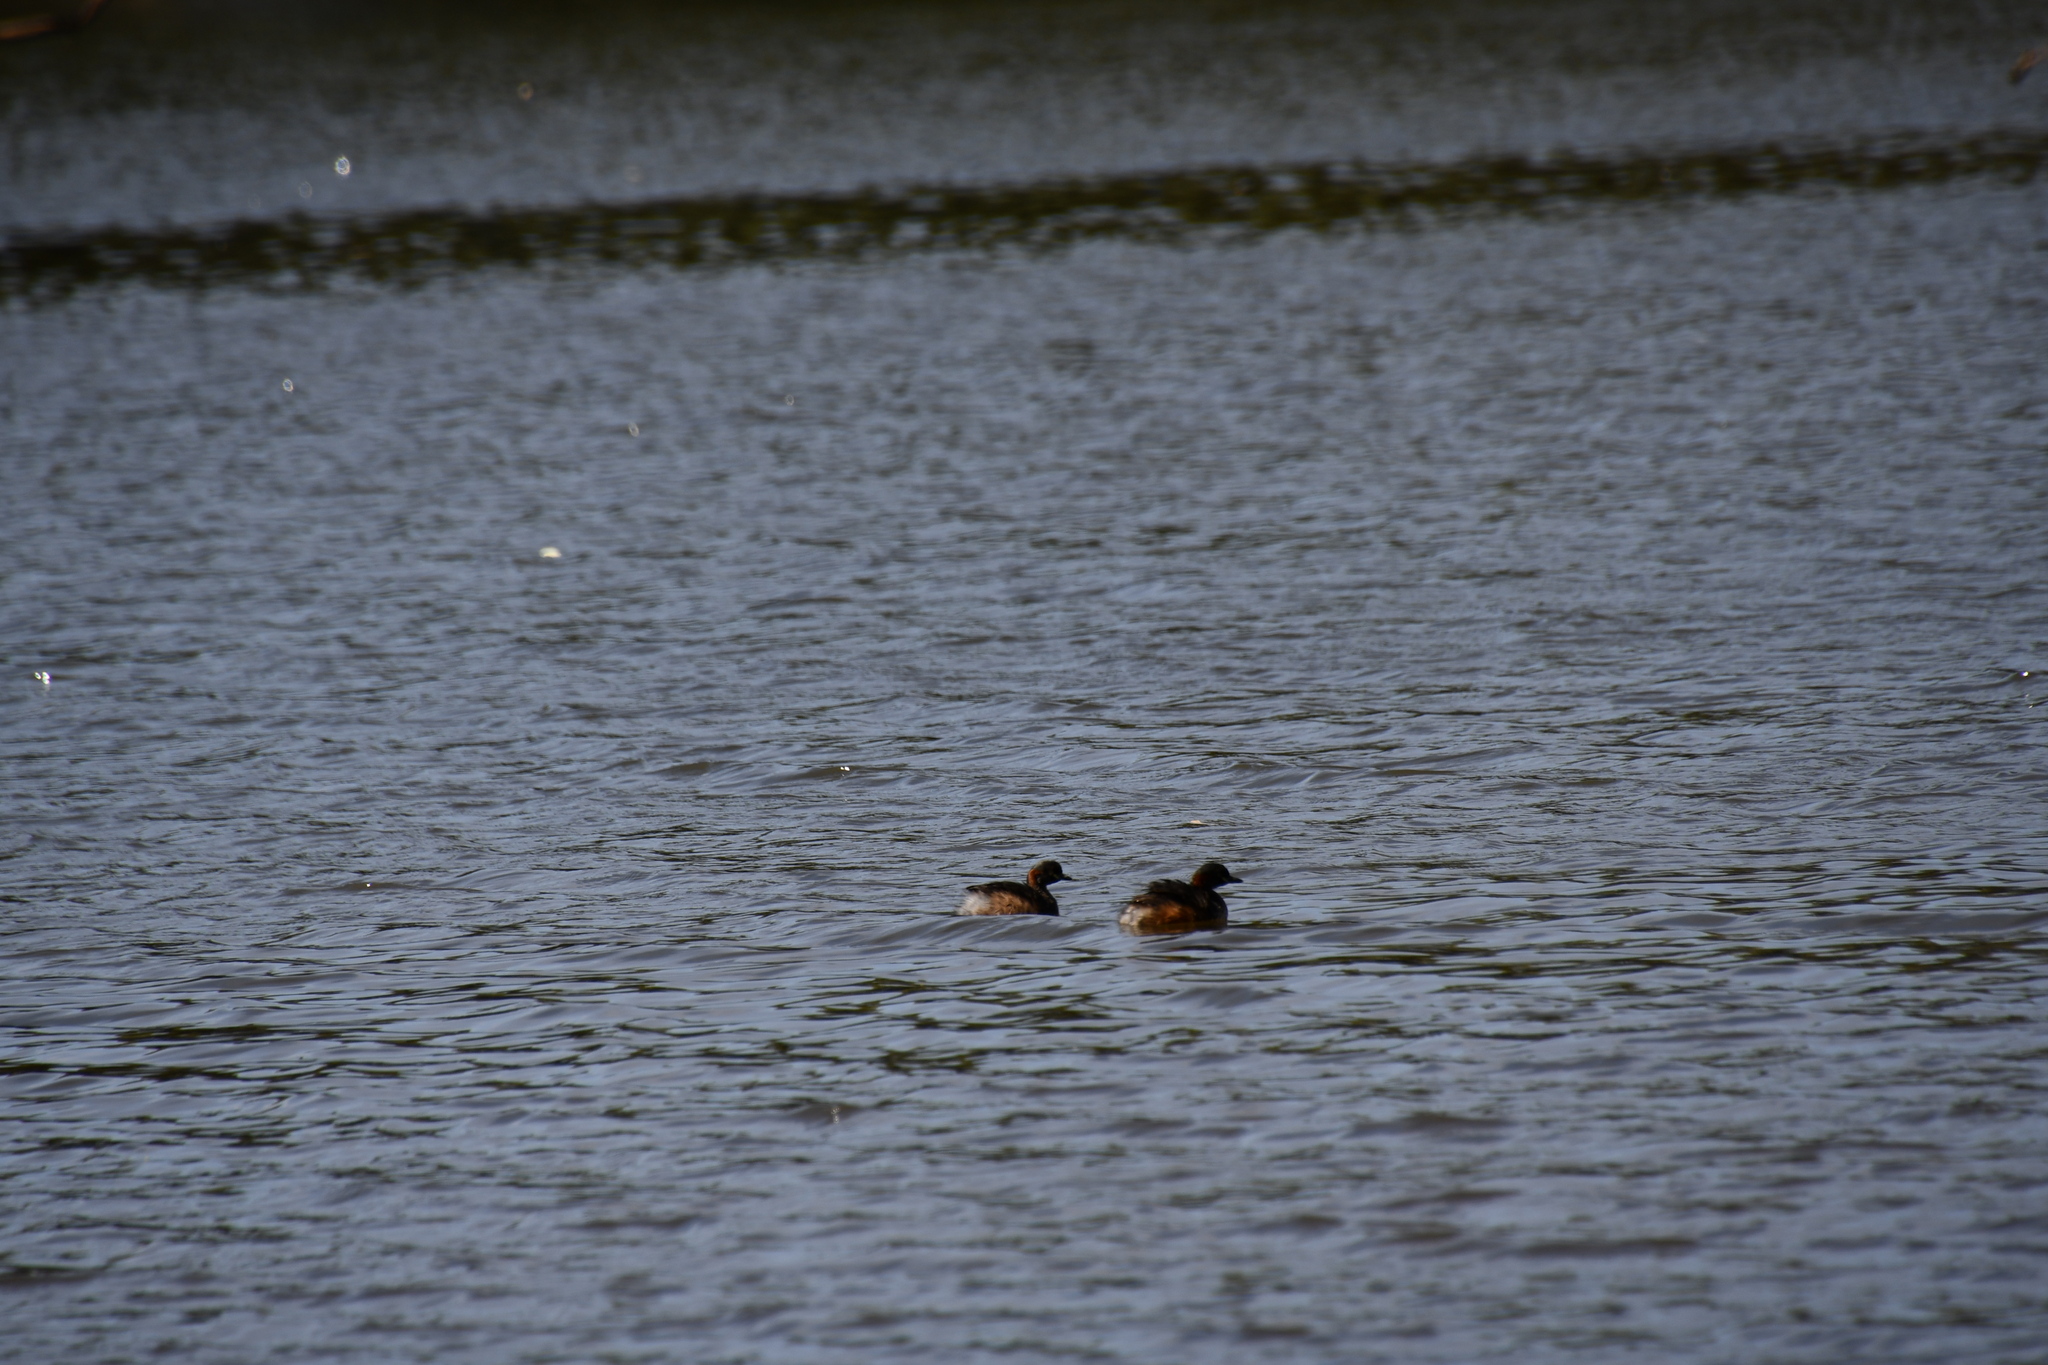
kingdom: Animalia
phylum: Chordata
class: Aves
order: Podicipediformes
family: Podicipedidae
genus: Tachybaptus
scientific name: Tachybaptus novaehollandiae
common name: Australasian grebe
